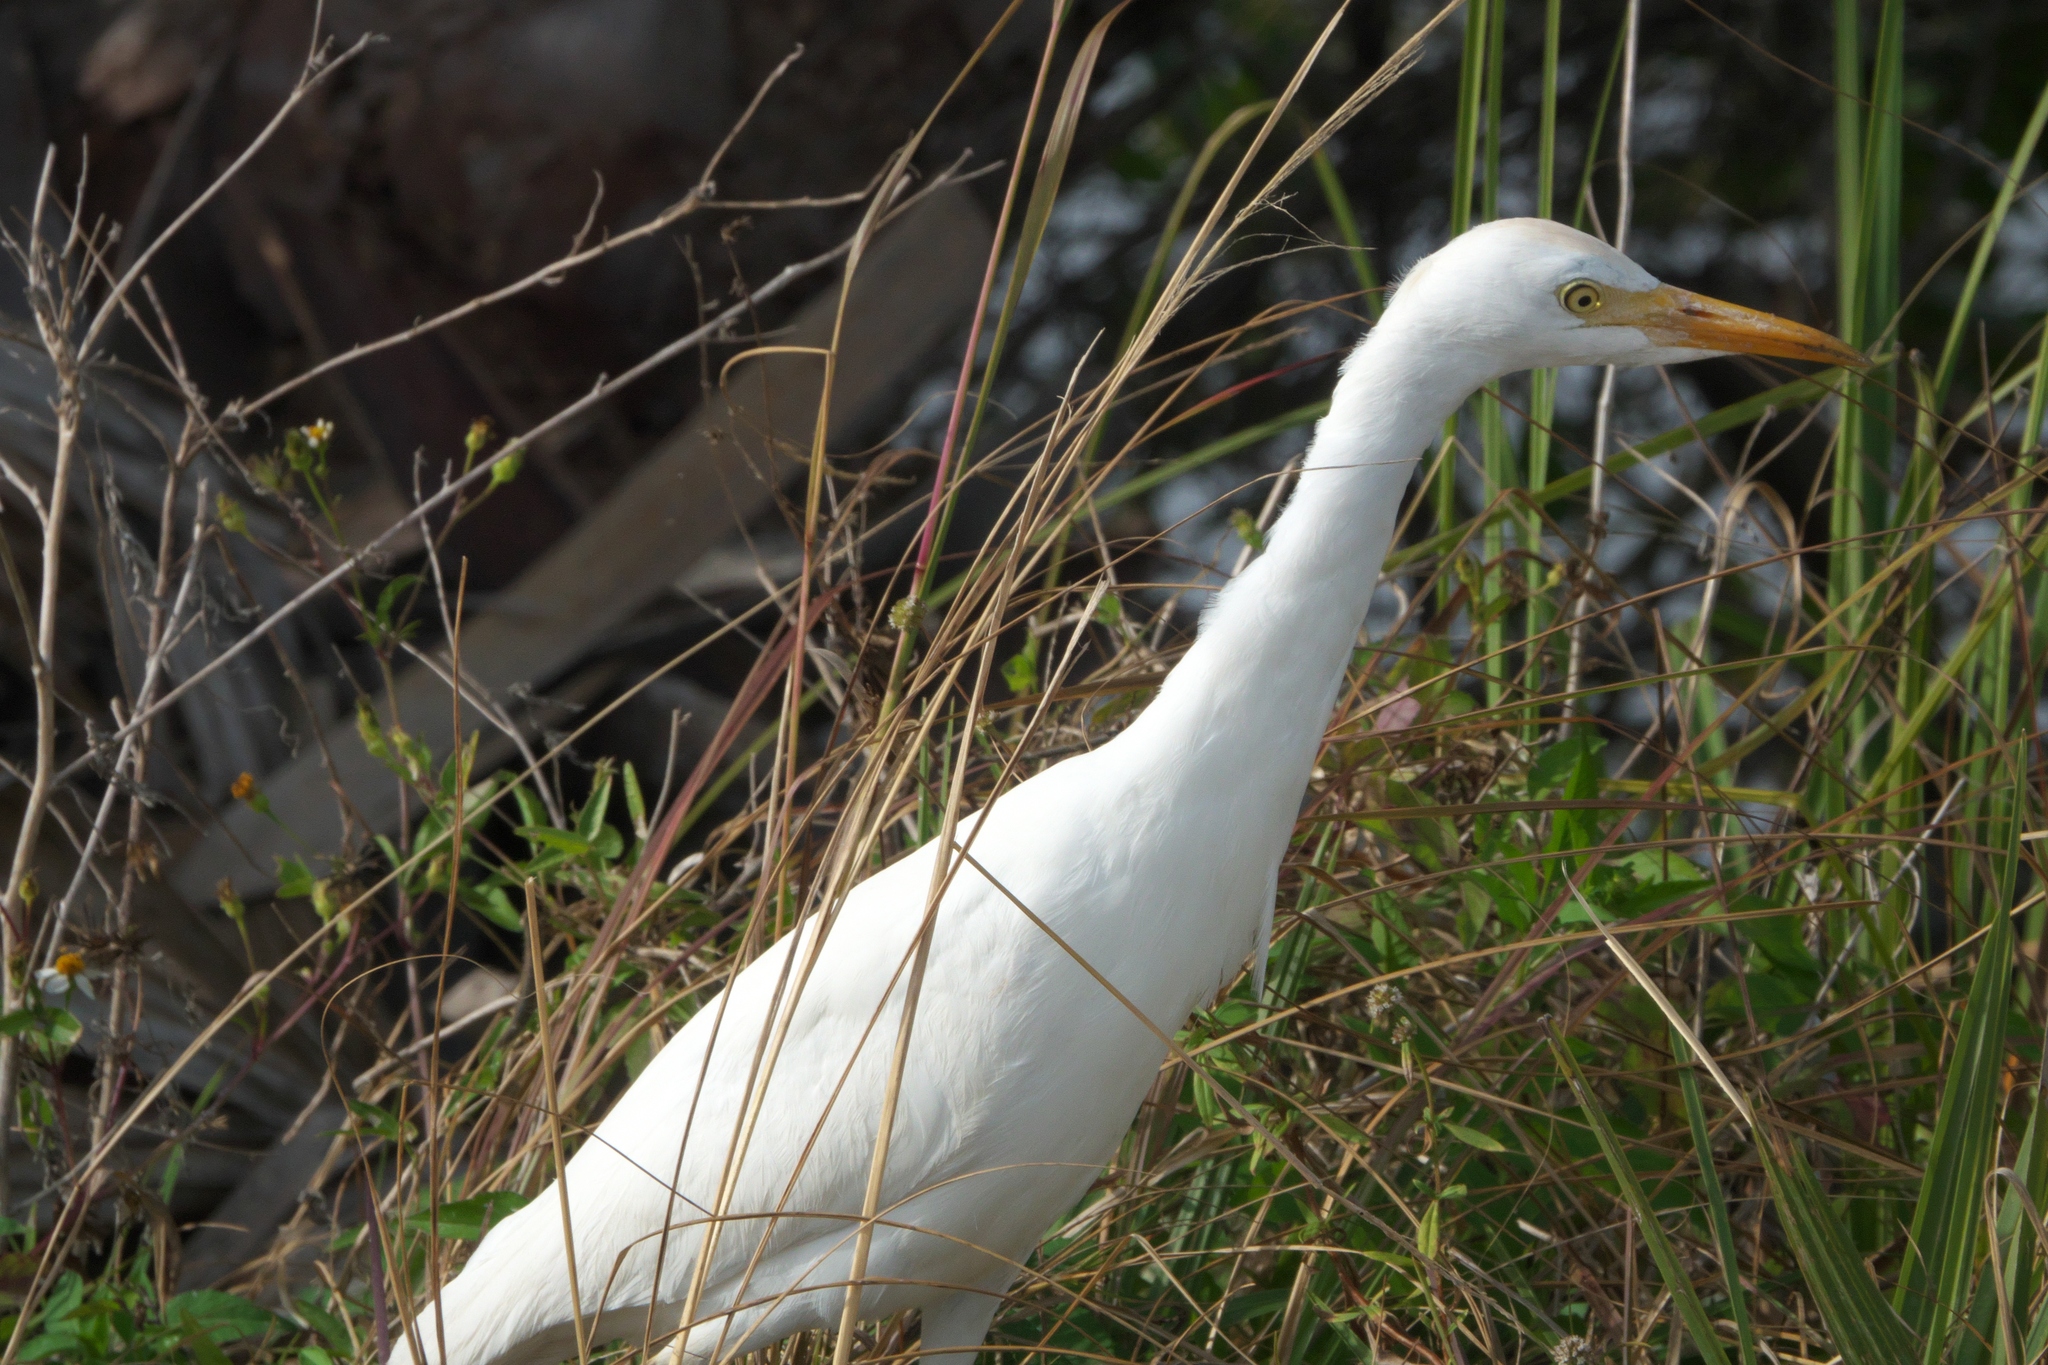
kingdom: Animalia
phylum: Chordata
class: Aves
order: Pelecaniformes
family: Ardeidae
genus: Bubulcus
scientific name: Bubulcus ibis
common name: Cattle egret
